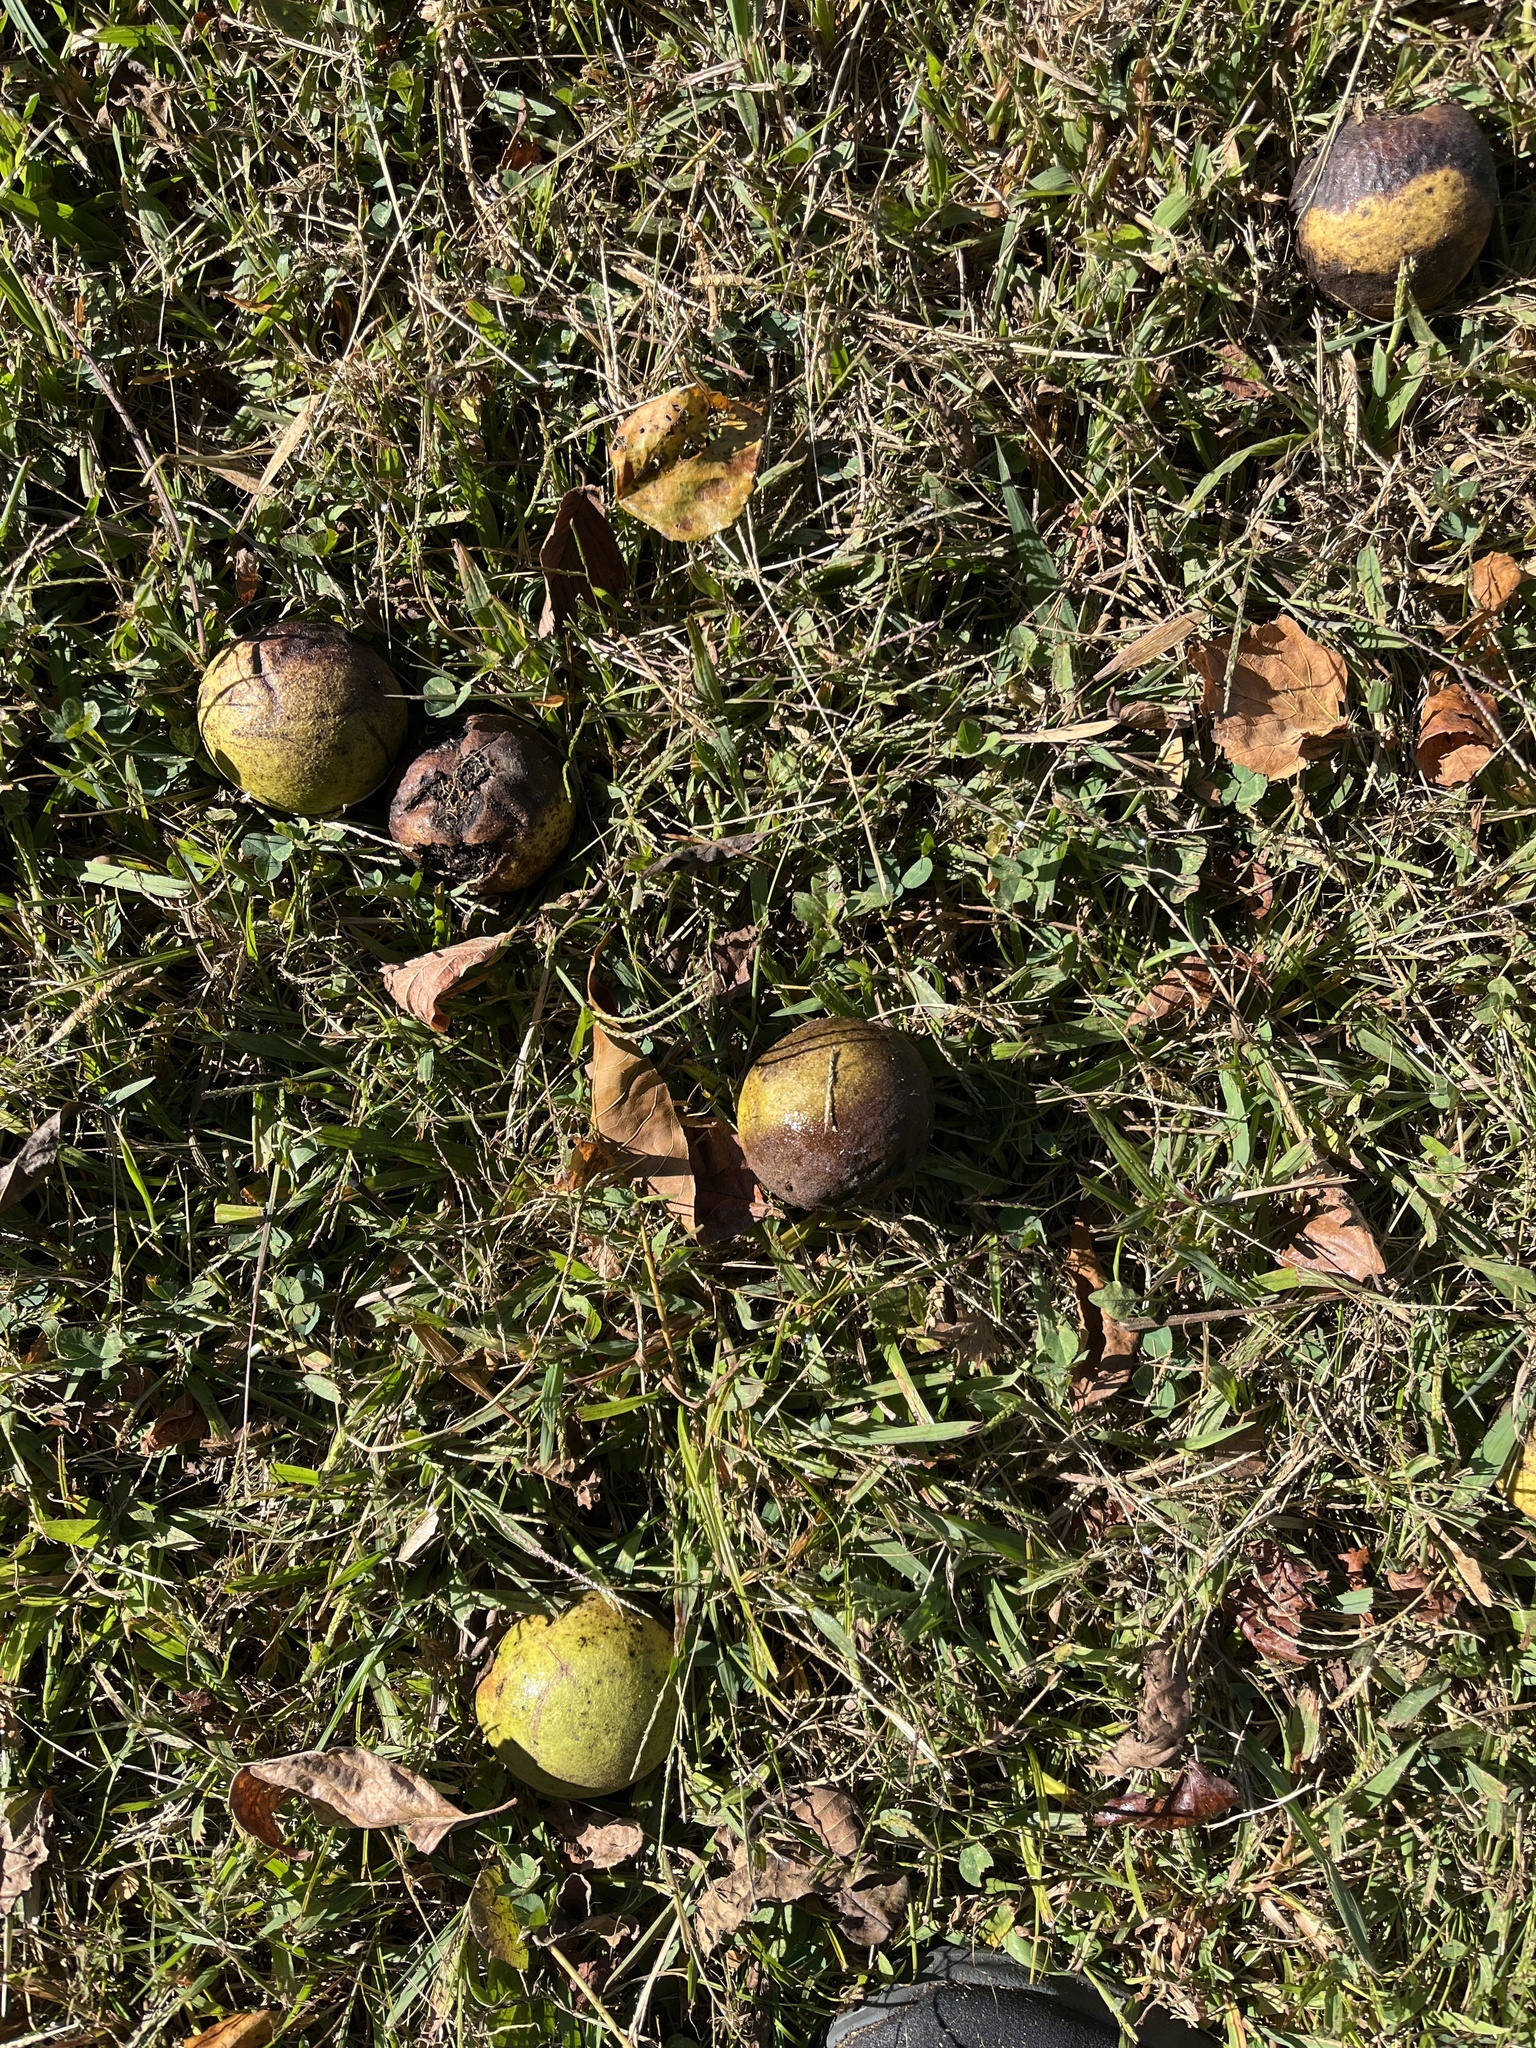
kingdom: Plantae
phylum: Tracheophyta
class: Magnoliopsida
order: Fagales
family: Juglandaceae
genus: Juglans
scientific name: Juglans nigra
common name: Black walnut
